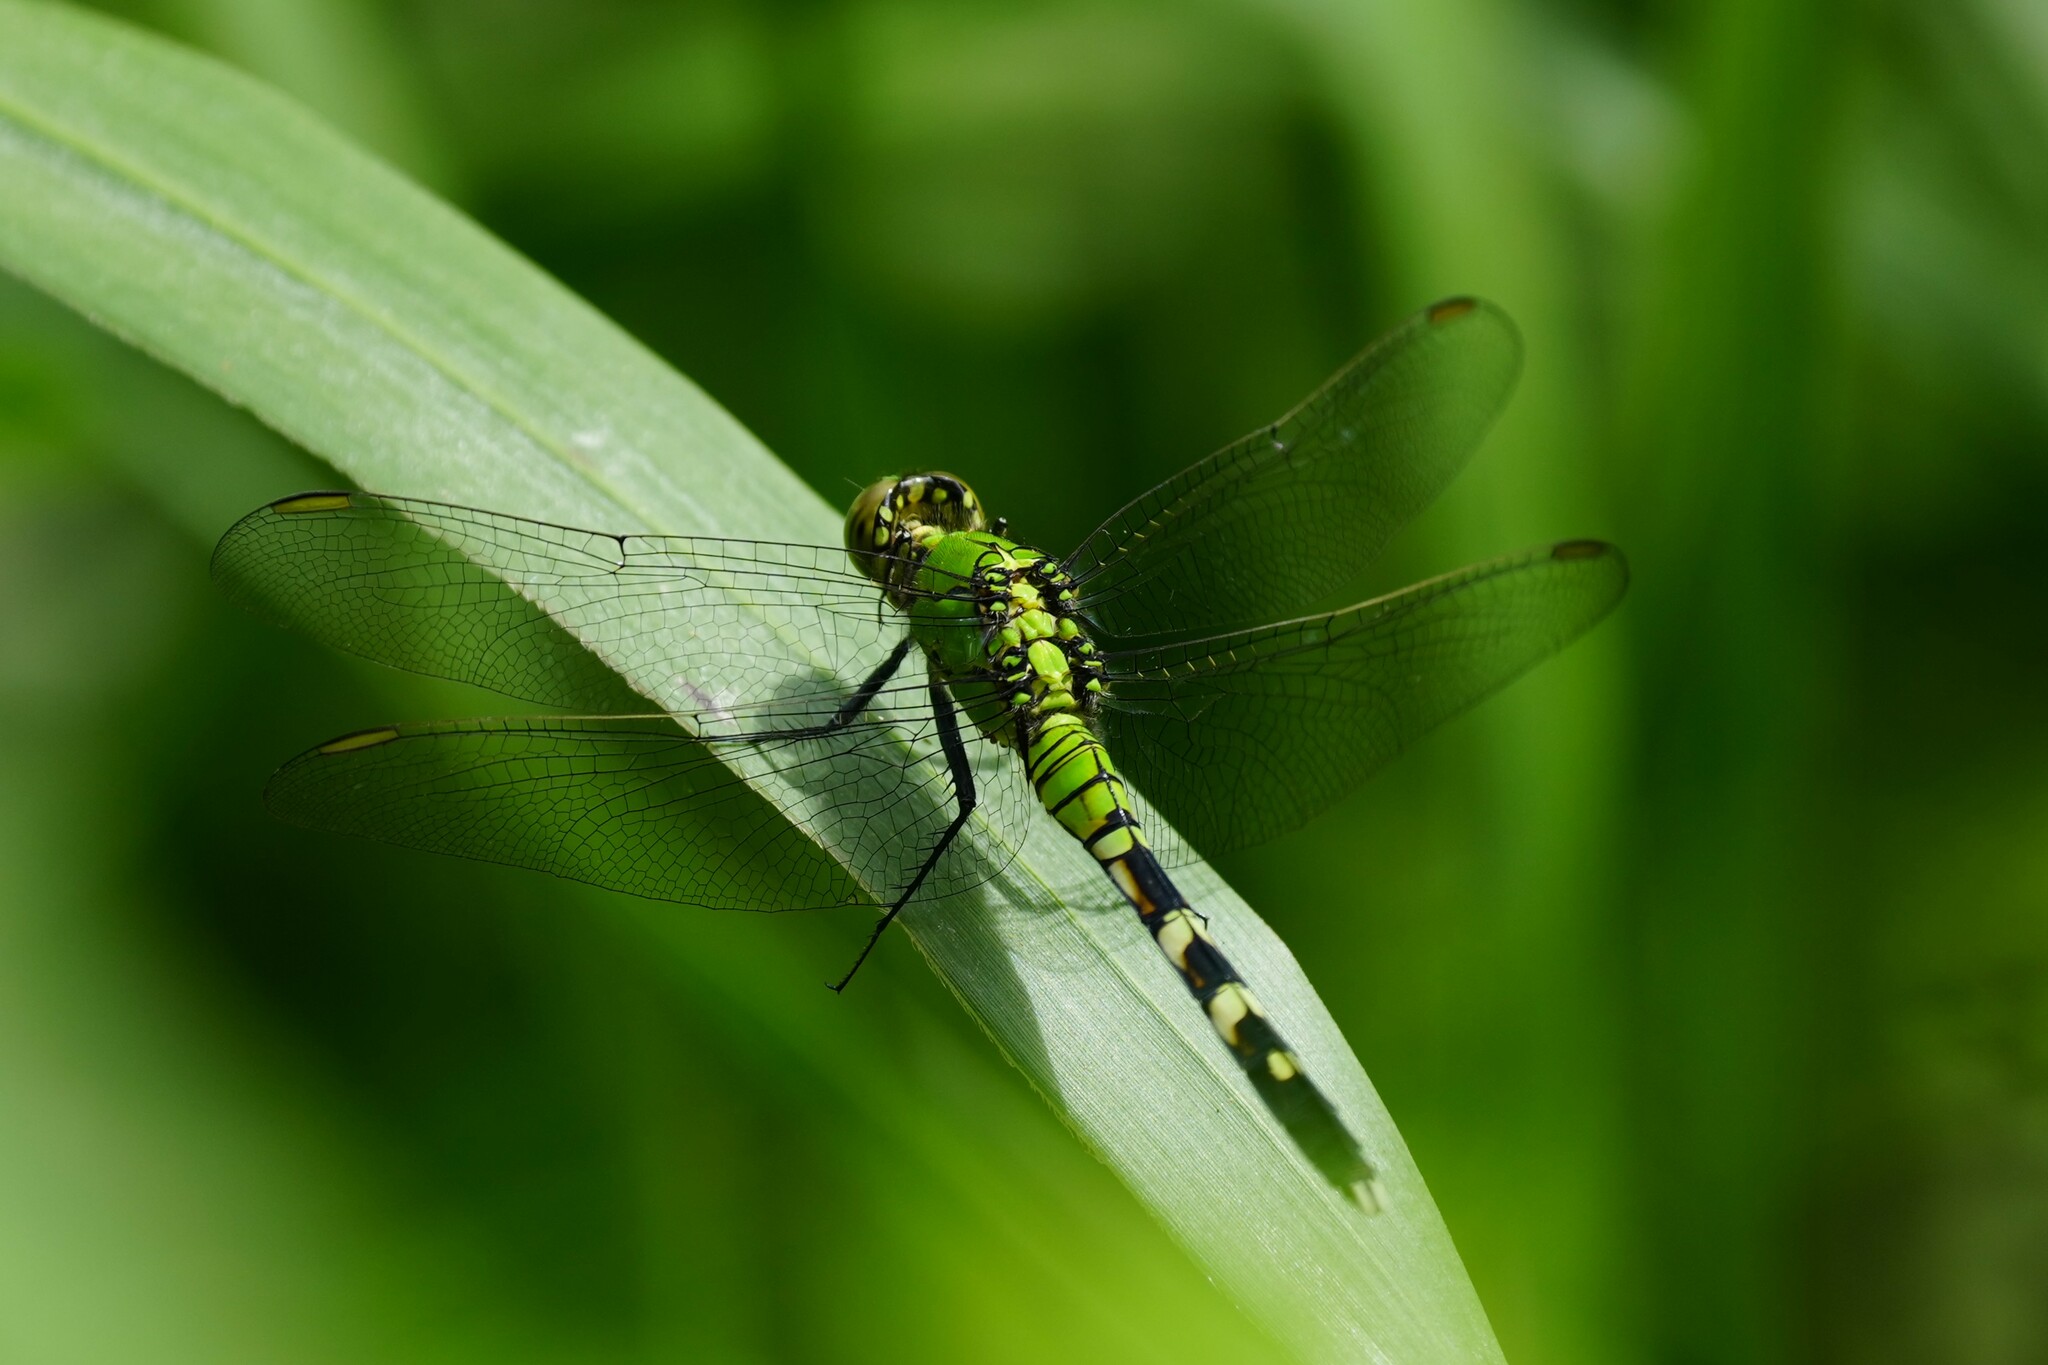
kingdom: Animalia
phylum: Arthropoda
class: Insecta
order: Odonata
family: Libellulidae
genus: Erythemis
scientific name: Erythemis simplicicollis
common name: Eastern pondhawk
